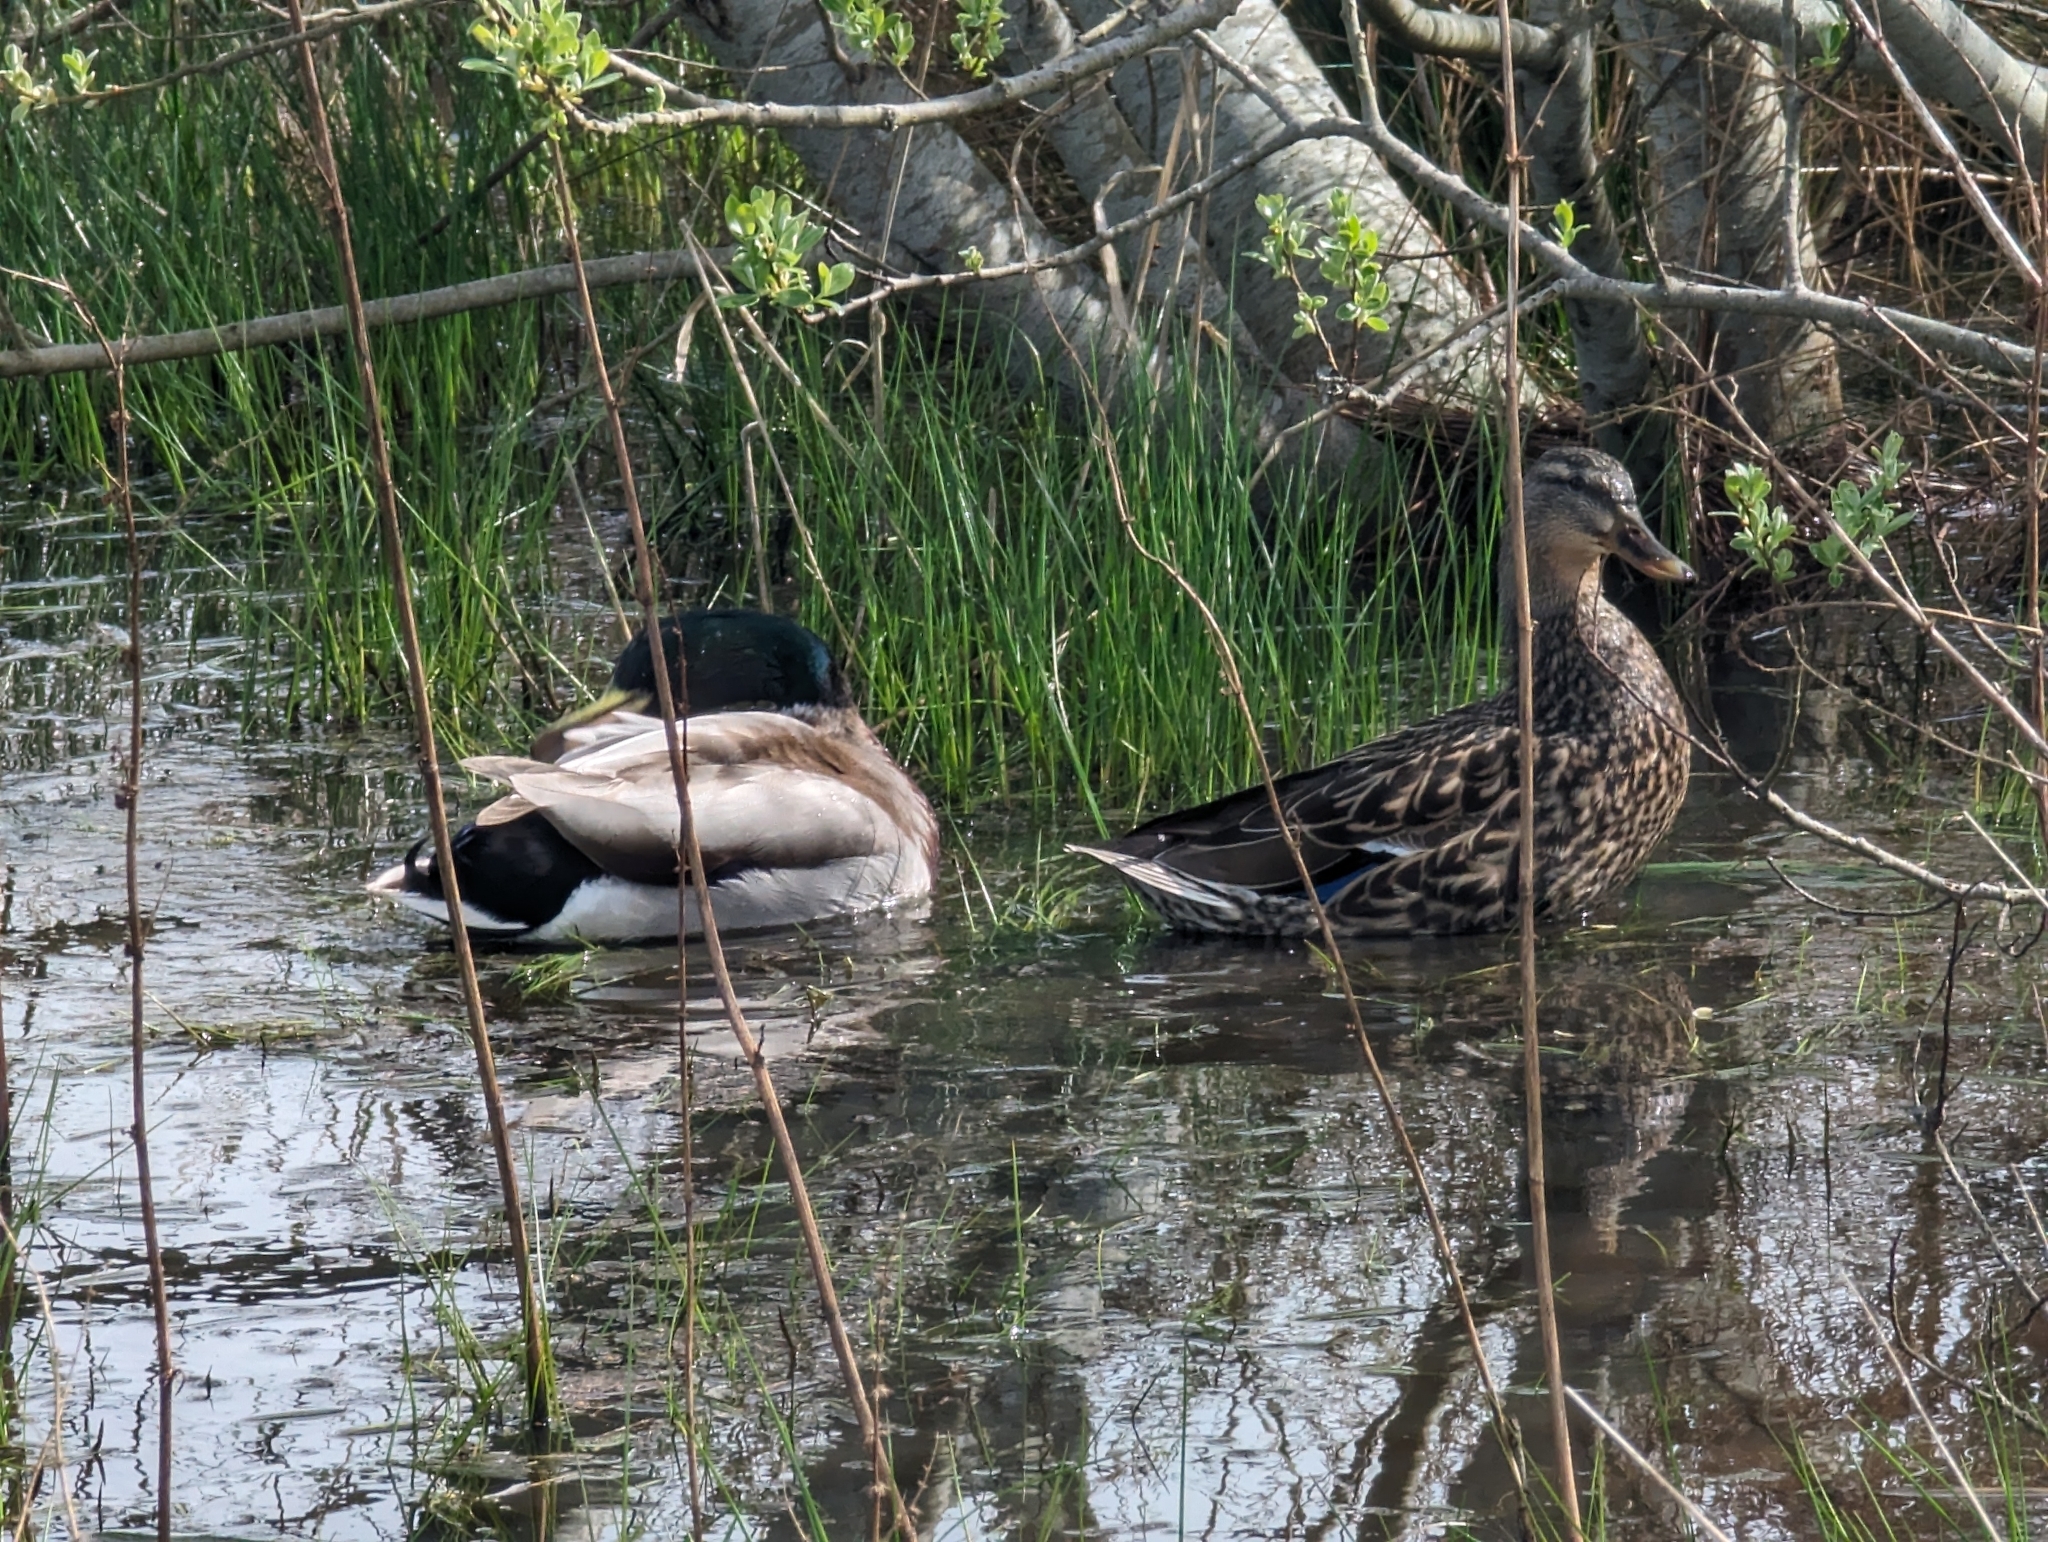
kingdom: Animalia
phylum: Chordata
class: Aves
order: Anseriformes
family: Anatidae
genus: Anas
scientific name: Anas platyrhynchos
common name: Mallard
